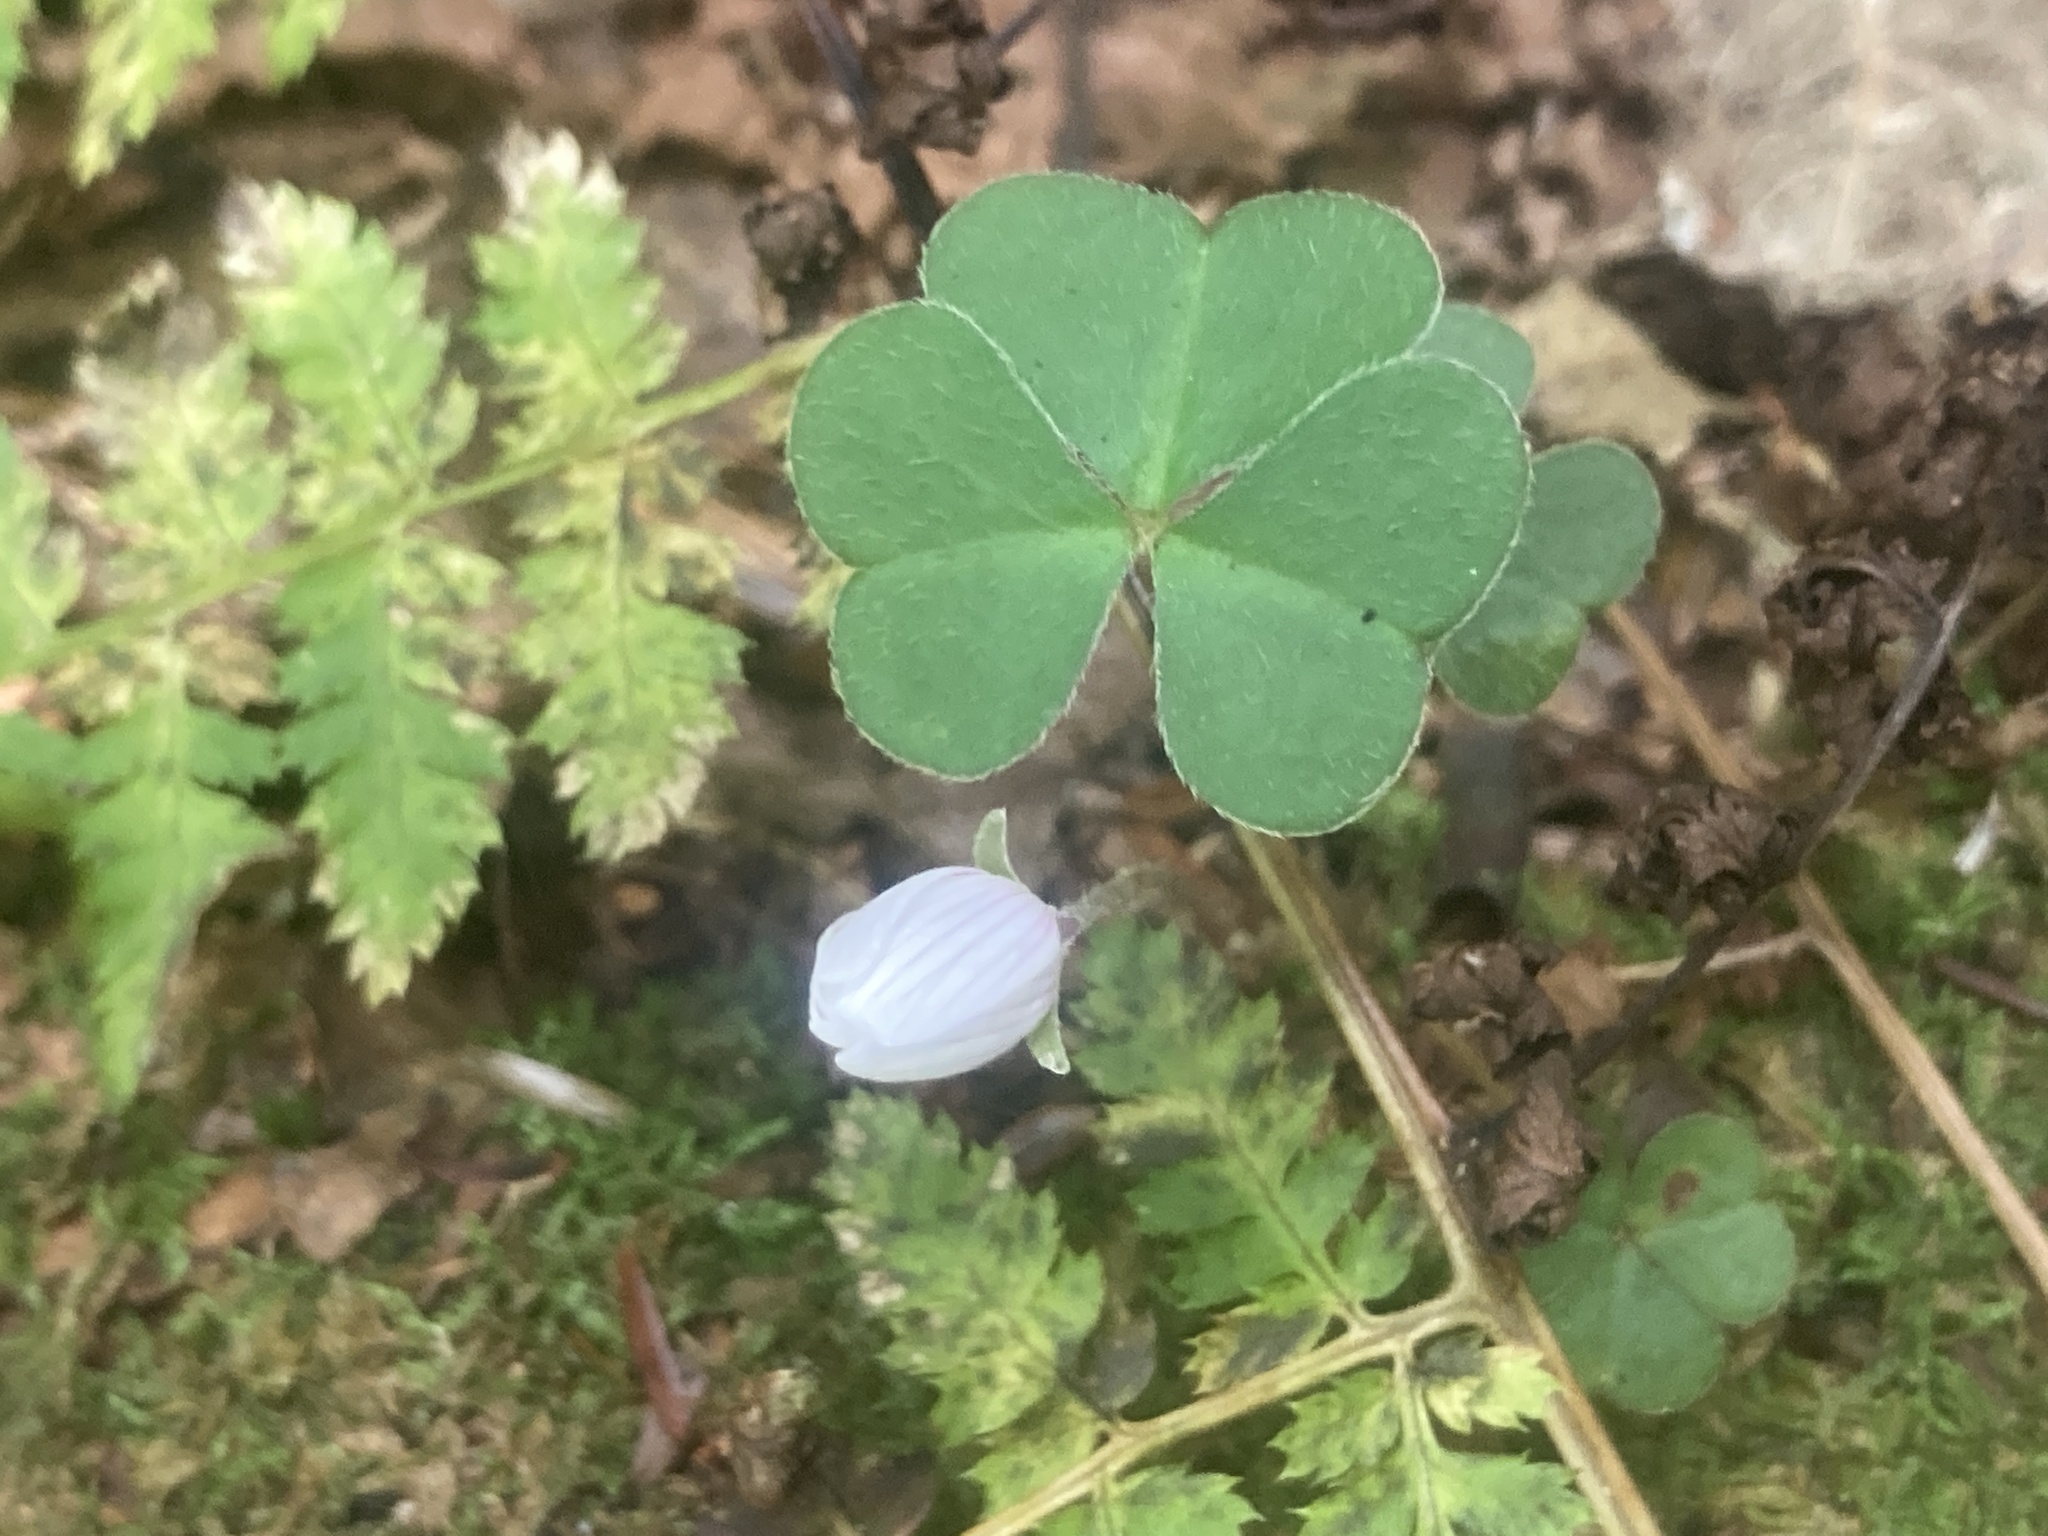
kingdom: Plantae
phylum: Tracheophyta
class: Magnoliopsida
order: Oxalidales
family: Oxalidaceae
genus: Oxalis
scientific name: Oxalis montana
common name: American wood-sorrel
